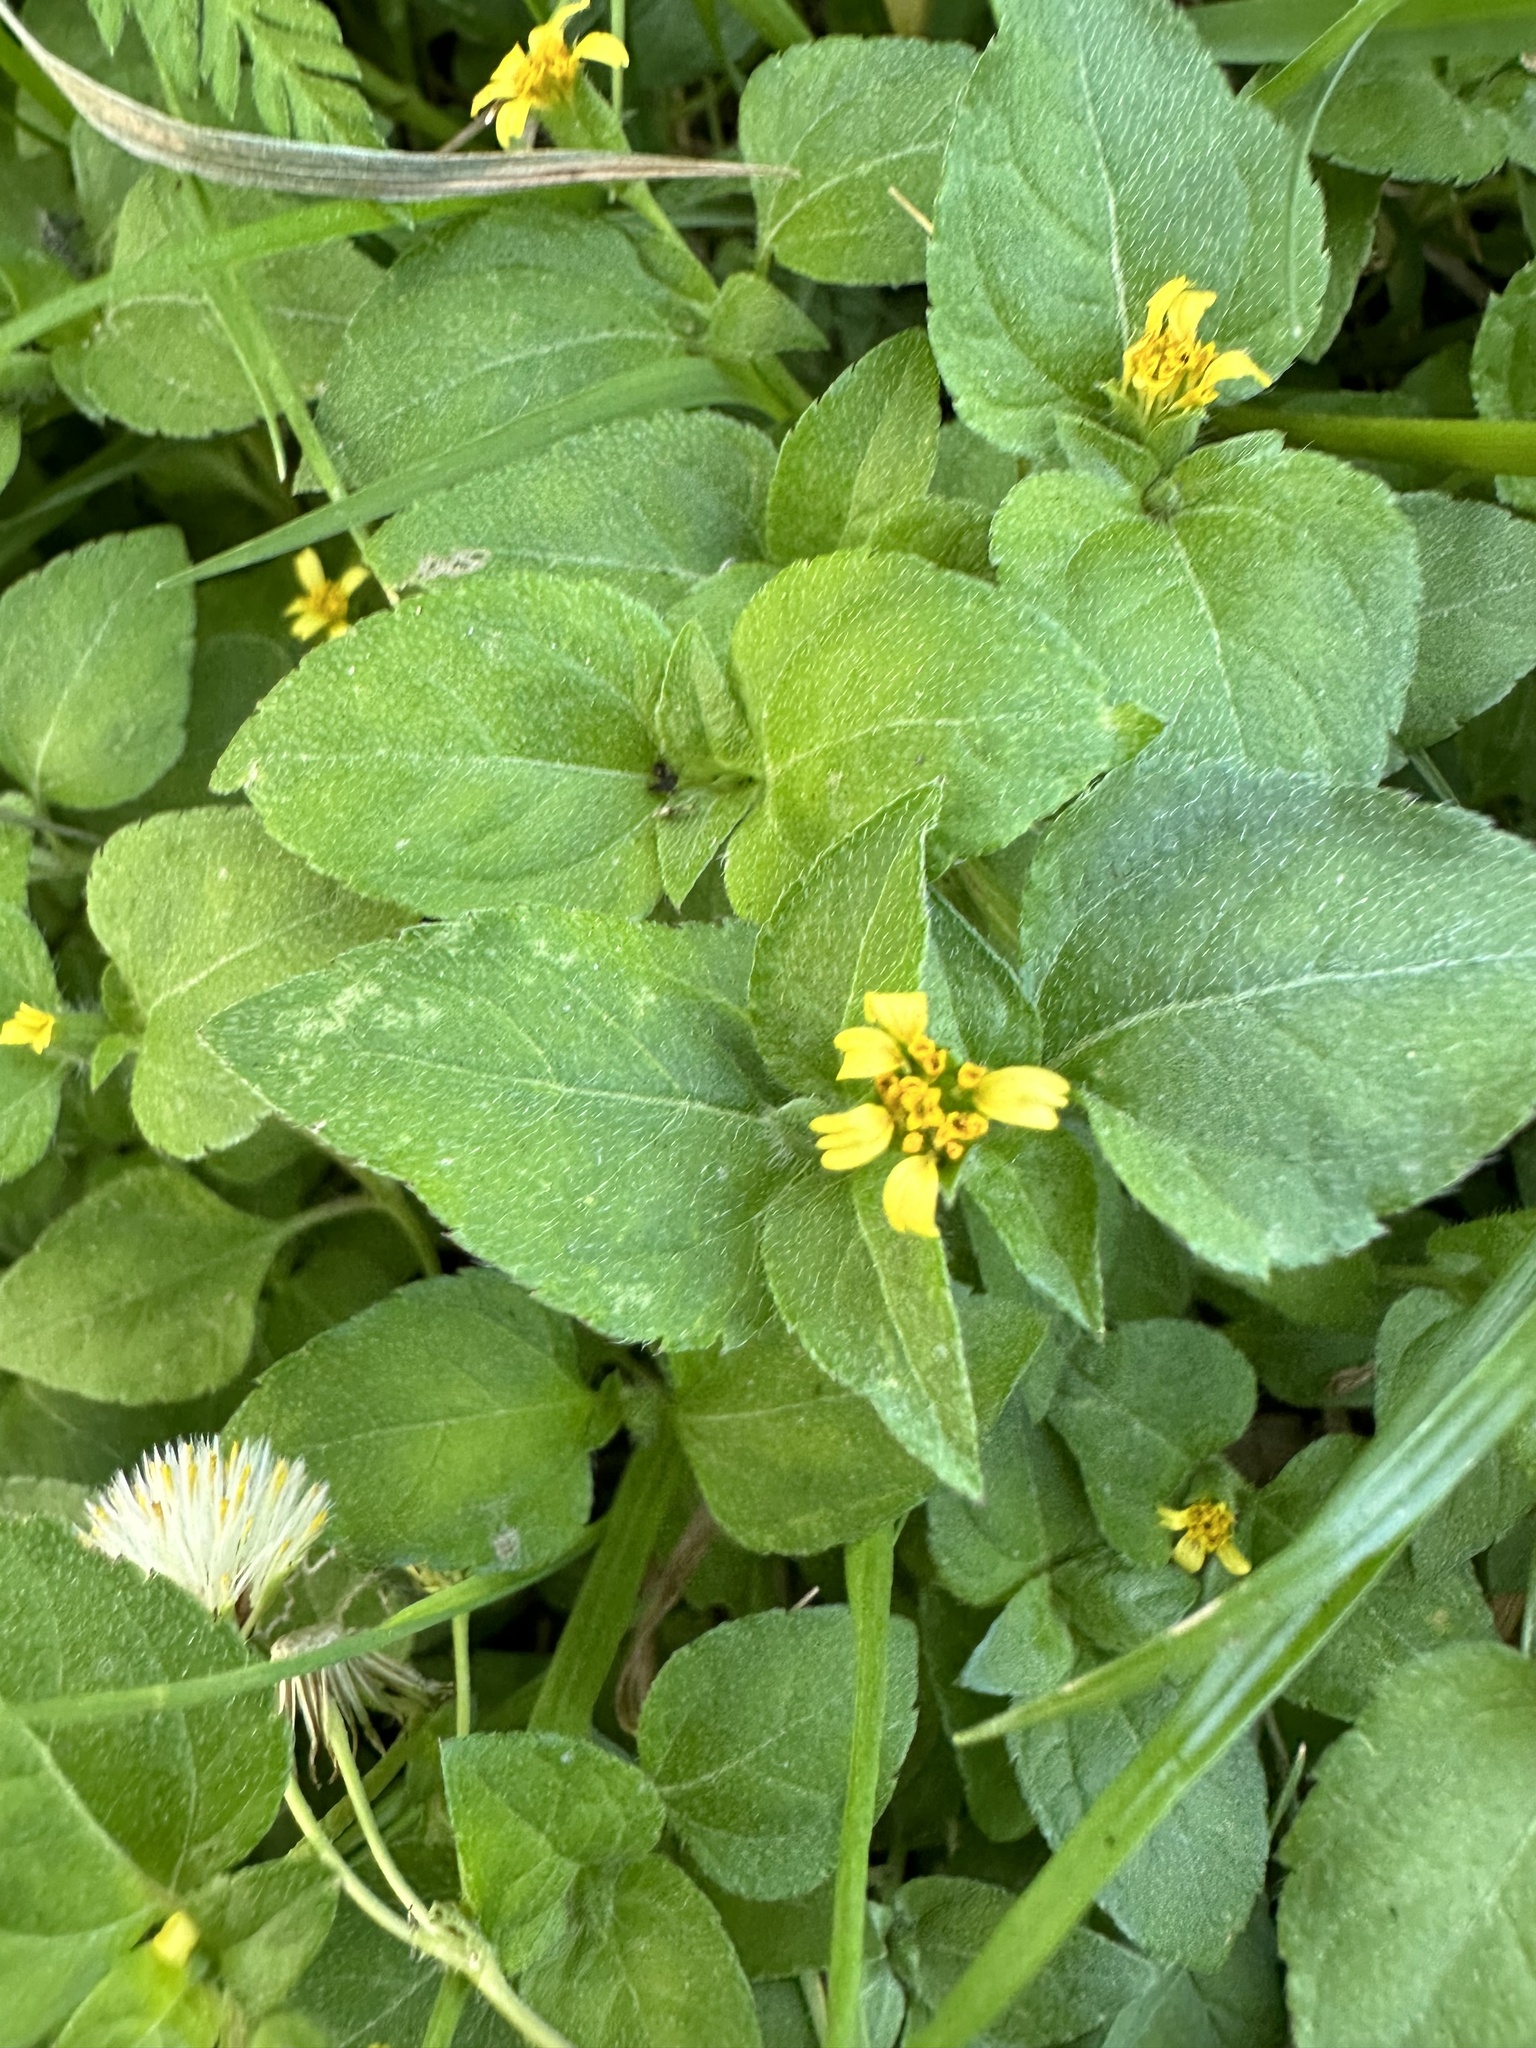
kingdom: Plantae
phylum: Tracheophyta
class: Magnoliopsida
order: Asterales
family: Asteraceae
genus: Calyptocarpus
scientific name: Calyptocarpus vialis
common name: Straggler daisy
